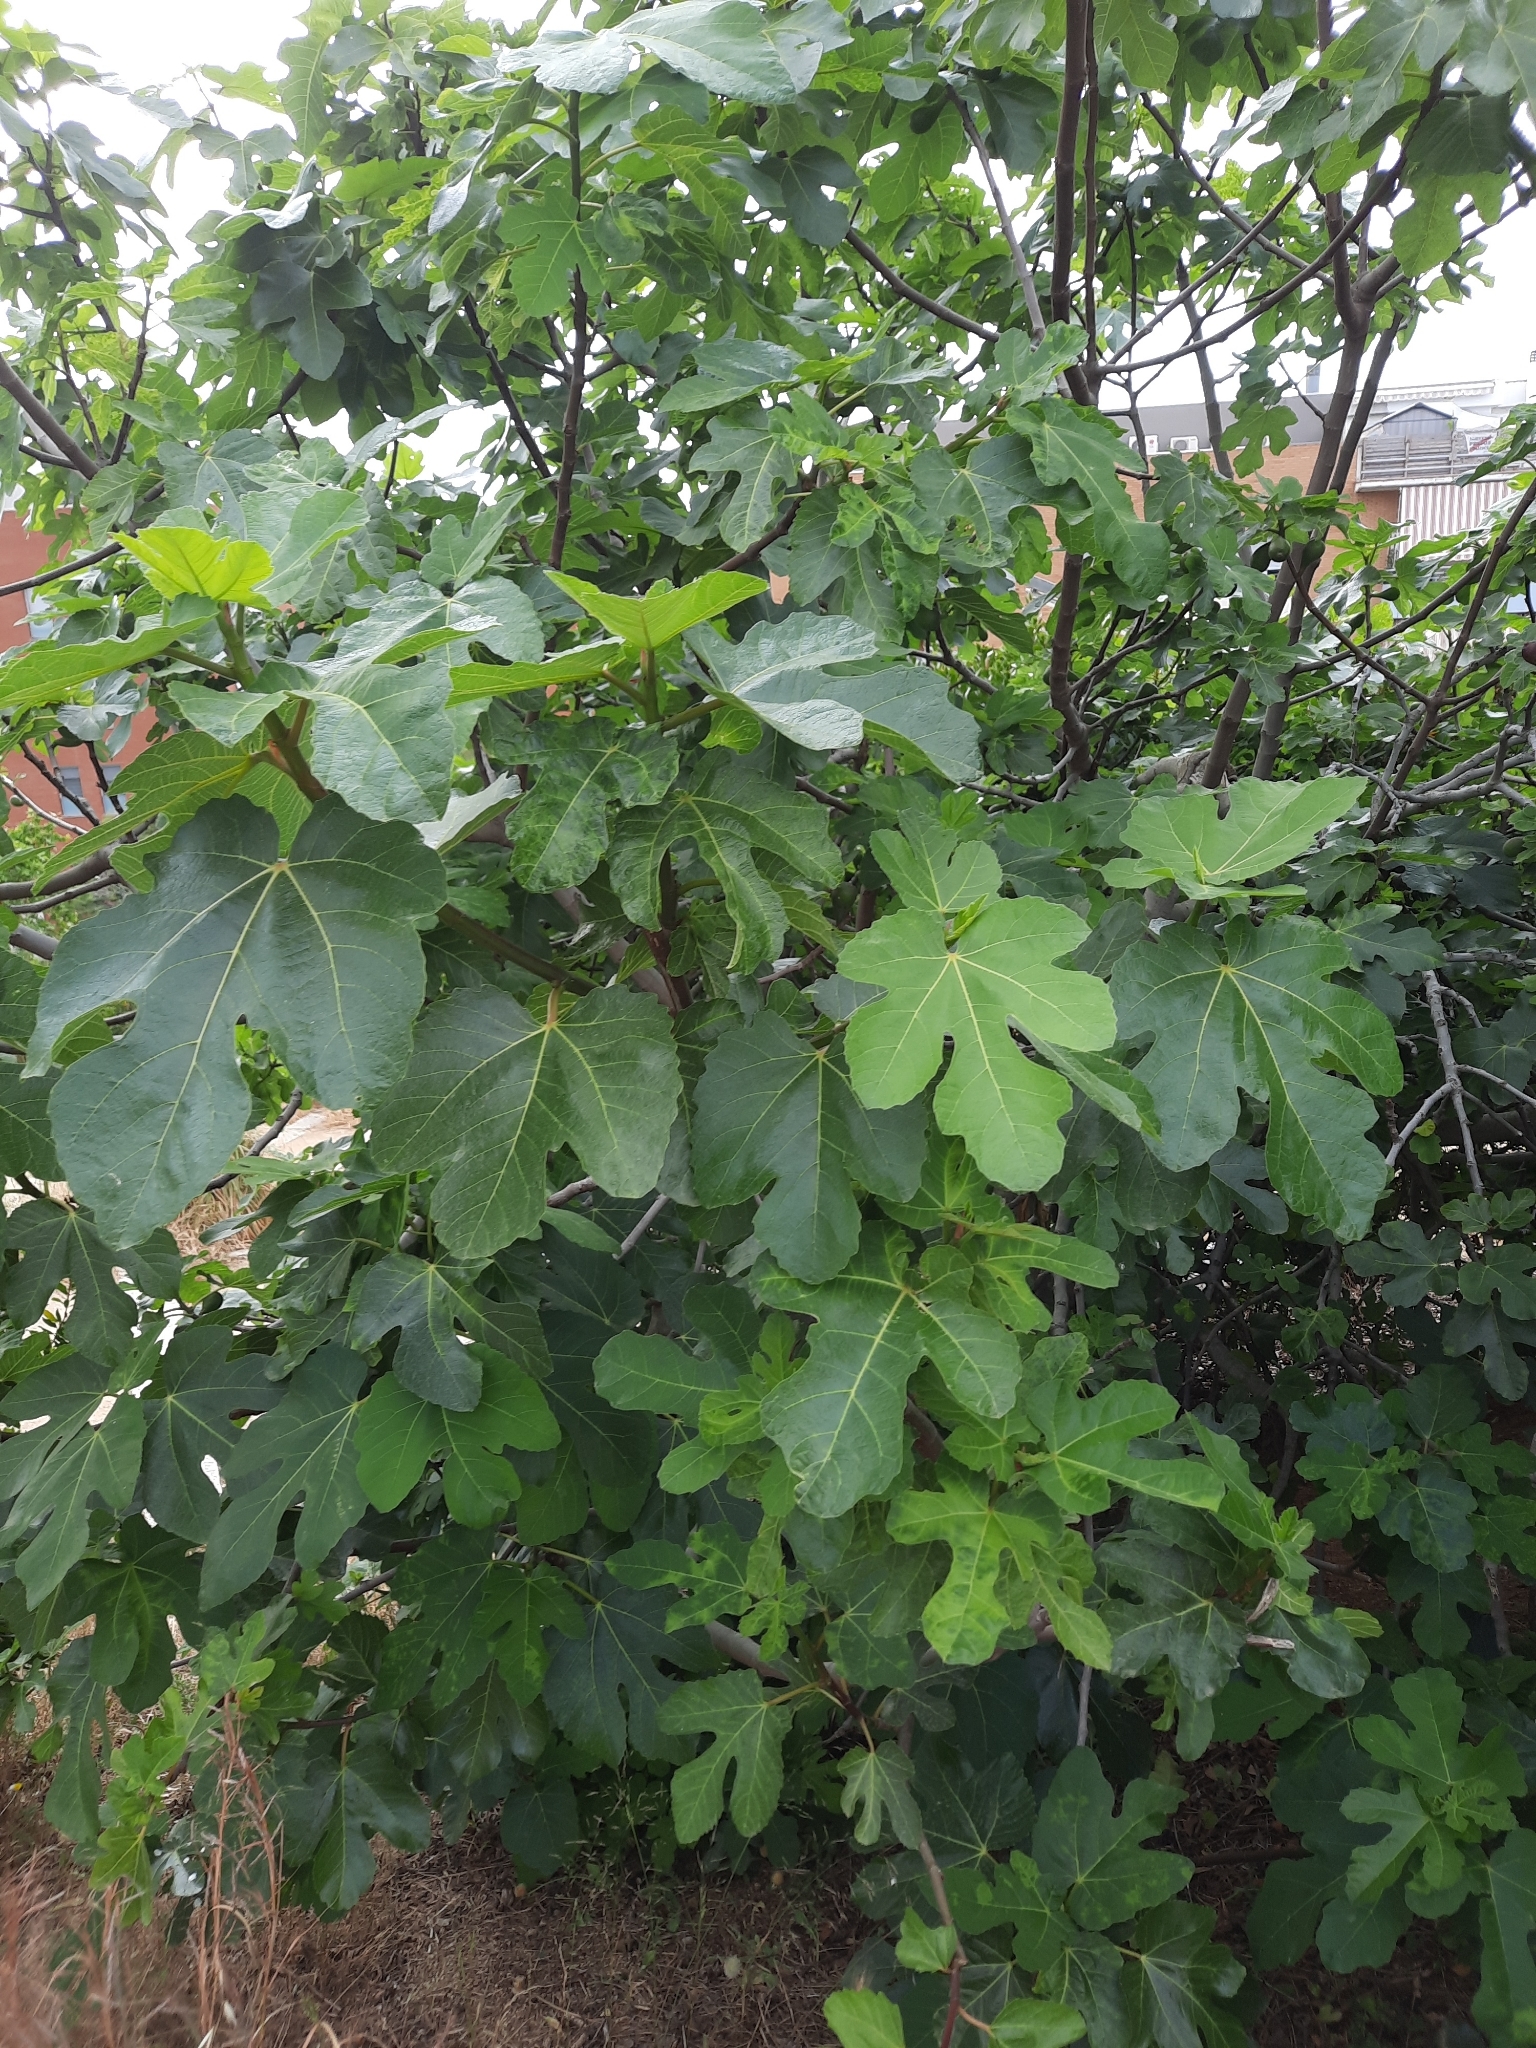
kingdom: Plantae
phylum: Tracheophyta
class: Magnoliopsida
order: Rosales
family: Moraceae
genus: Ficus
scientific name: Ficus carica
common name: Fig
